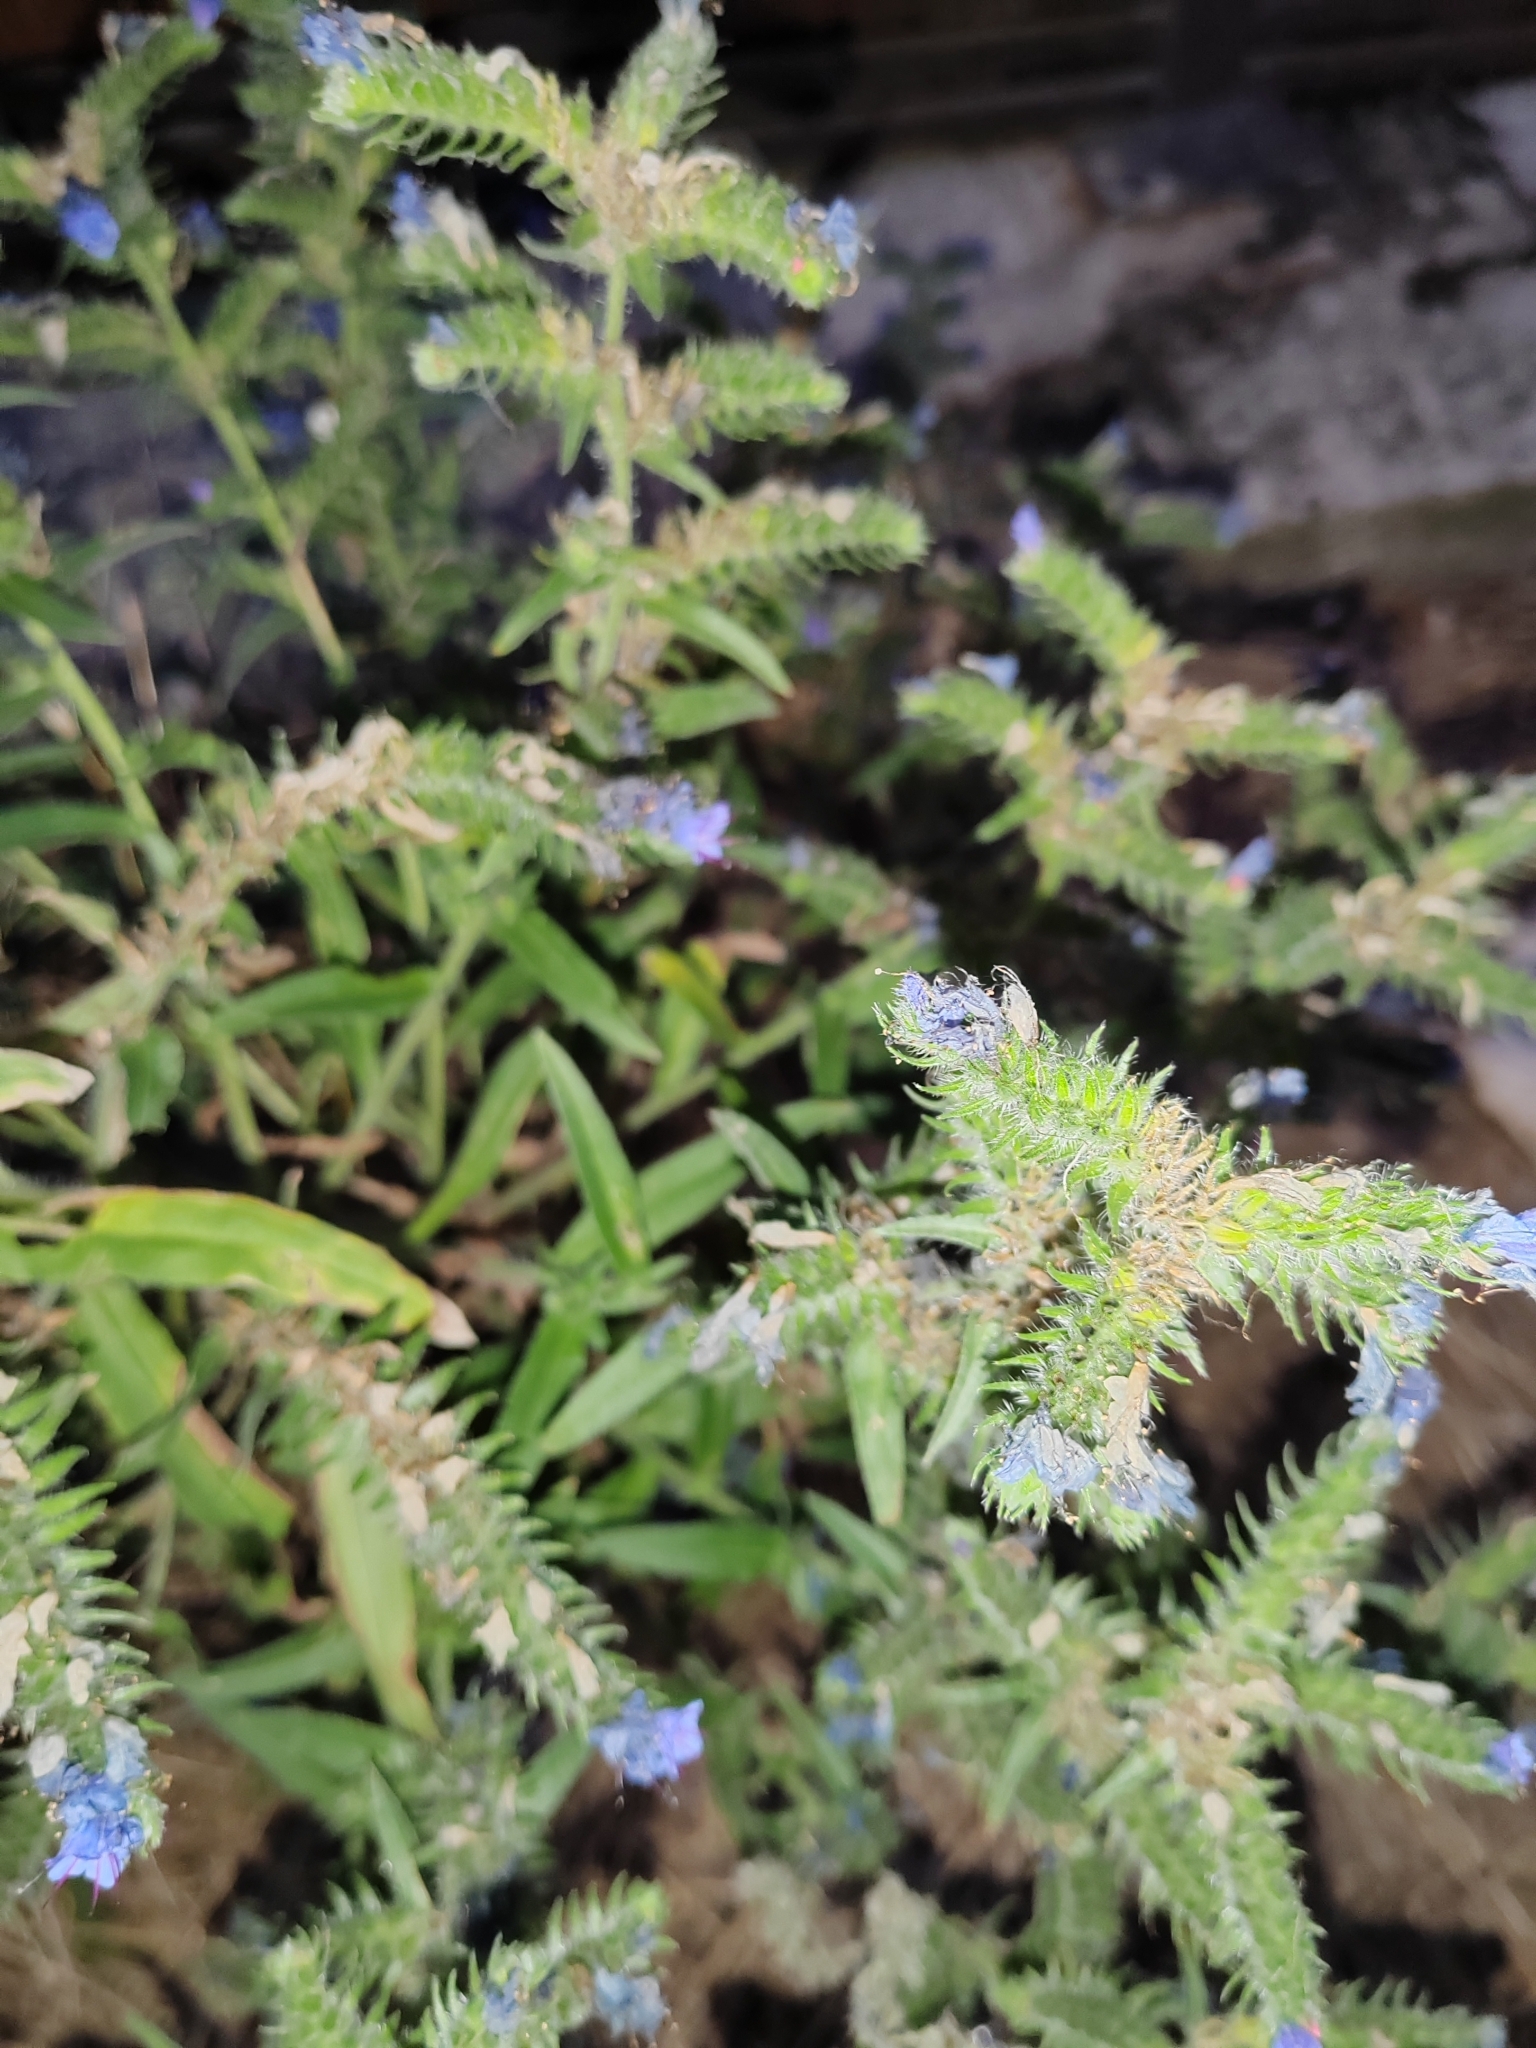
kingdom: Plantae
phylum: Tracheophyta
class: Magnoliopsida
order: Boraginales
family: Boraginaceae
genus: Echium
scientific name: Echium vulgare
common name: Common viper's bugloss
